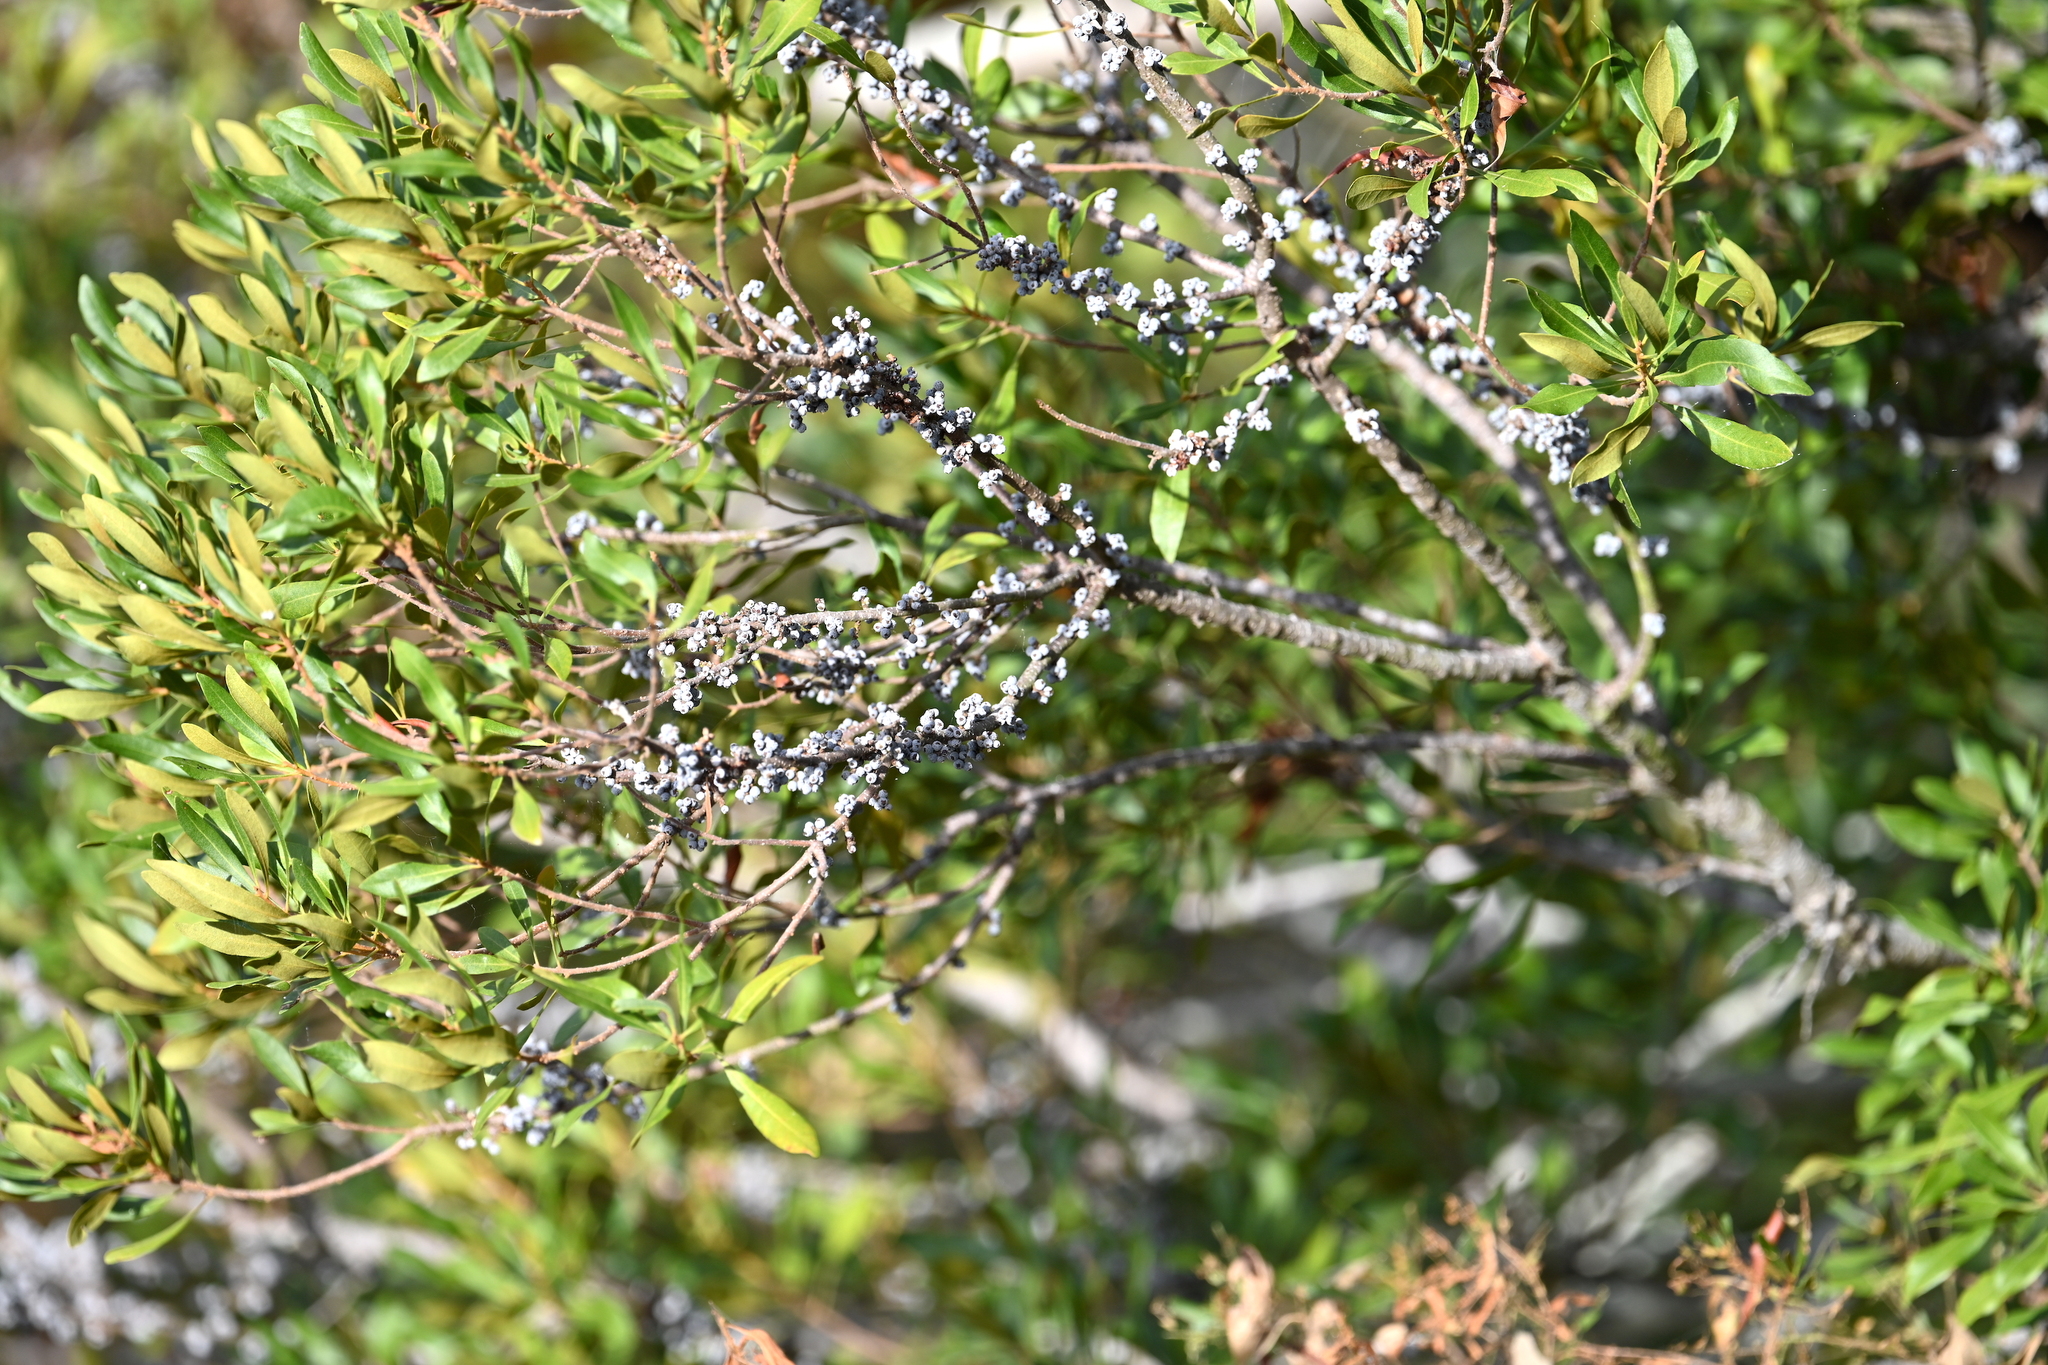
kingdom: Plantae
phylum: Tracheophyta
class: Magnoliopsida
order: Fagales
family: Myricaceae
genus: Morella
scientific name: Morella cerifera
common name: Wax myrtle
